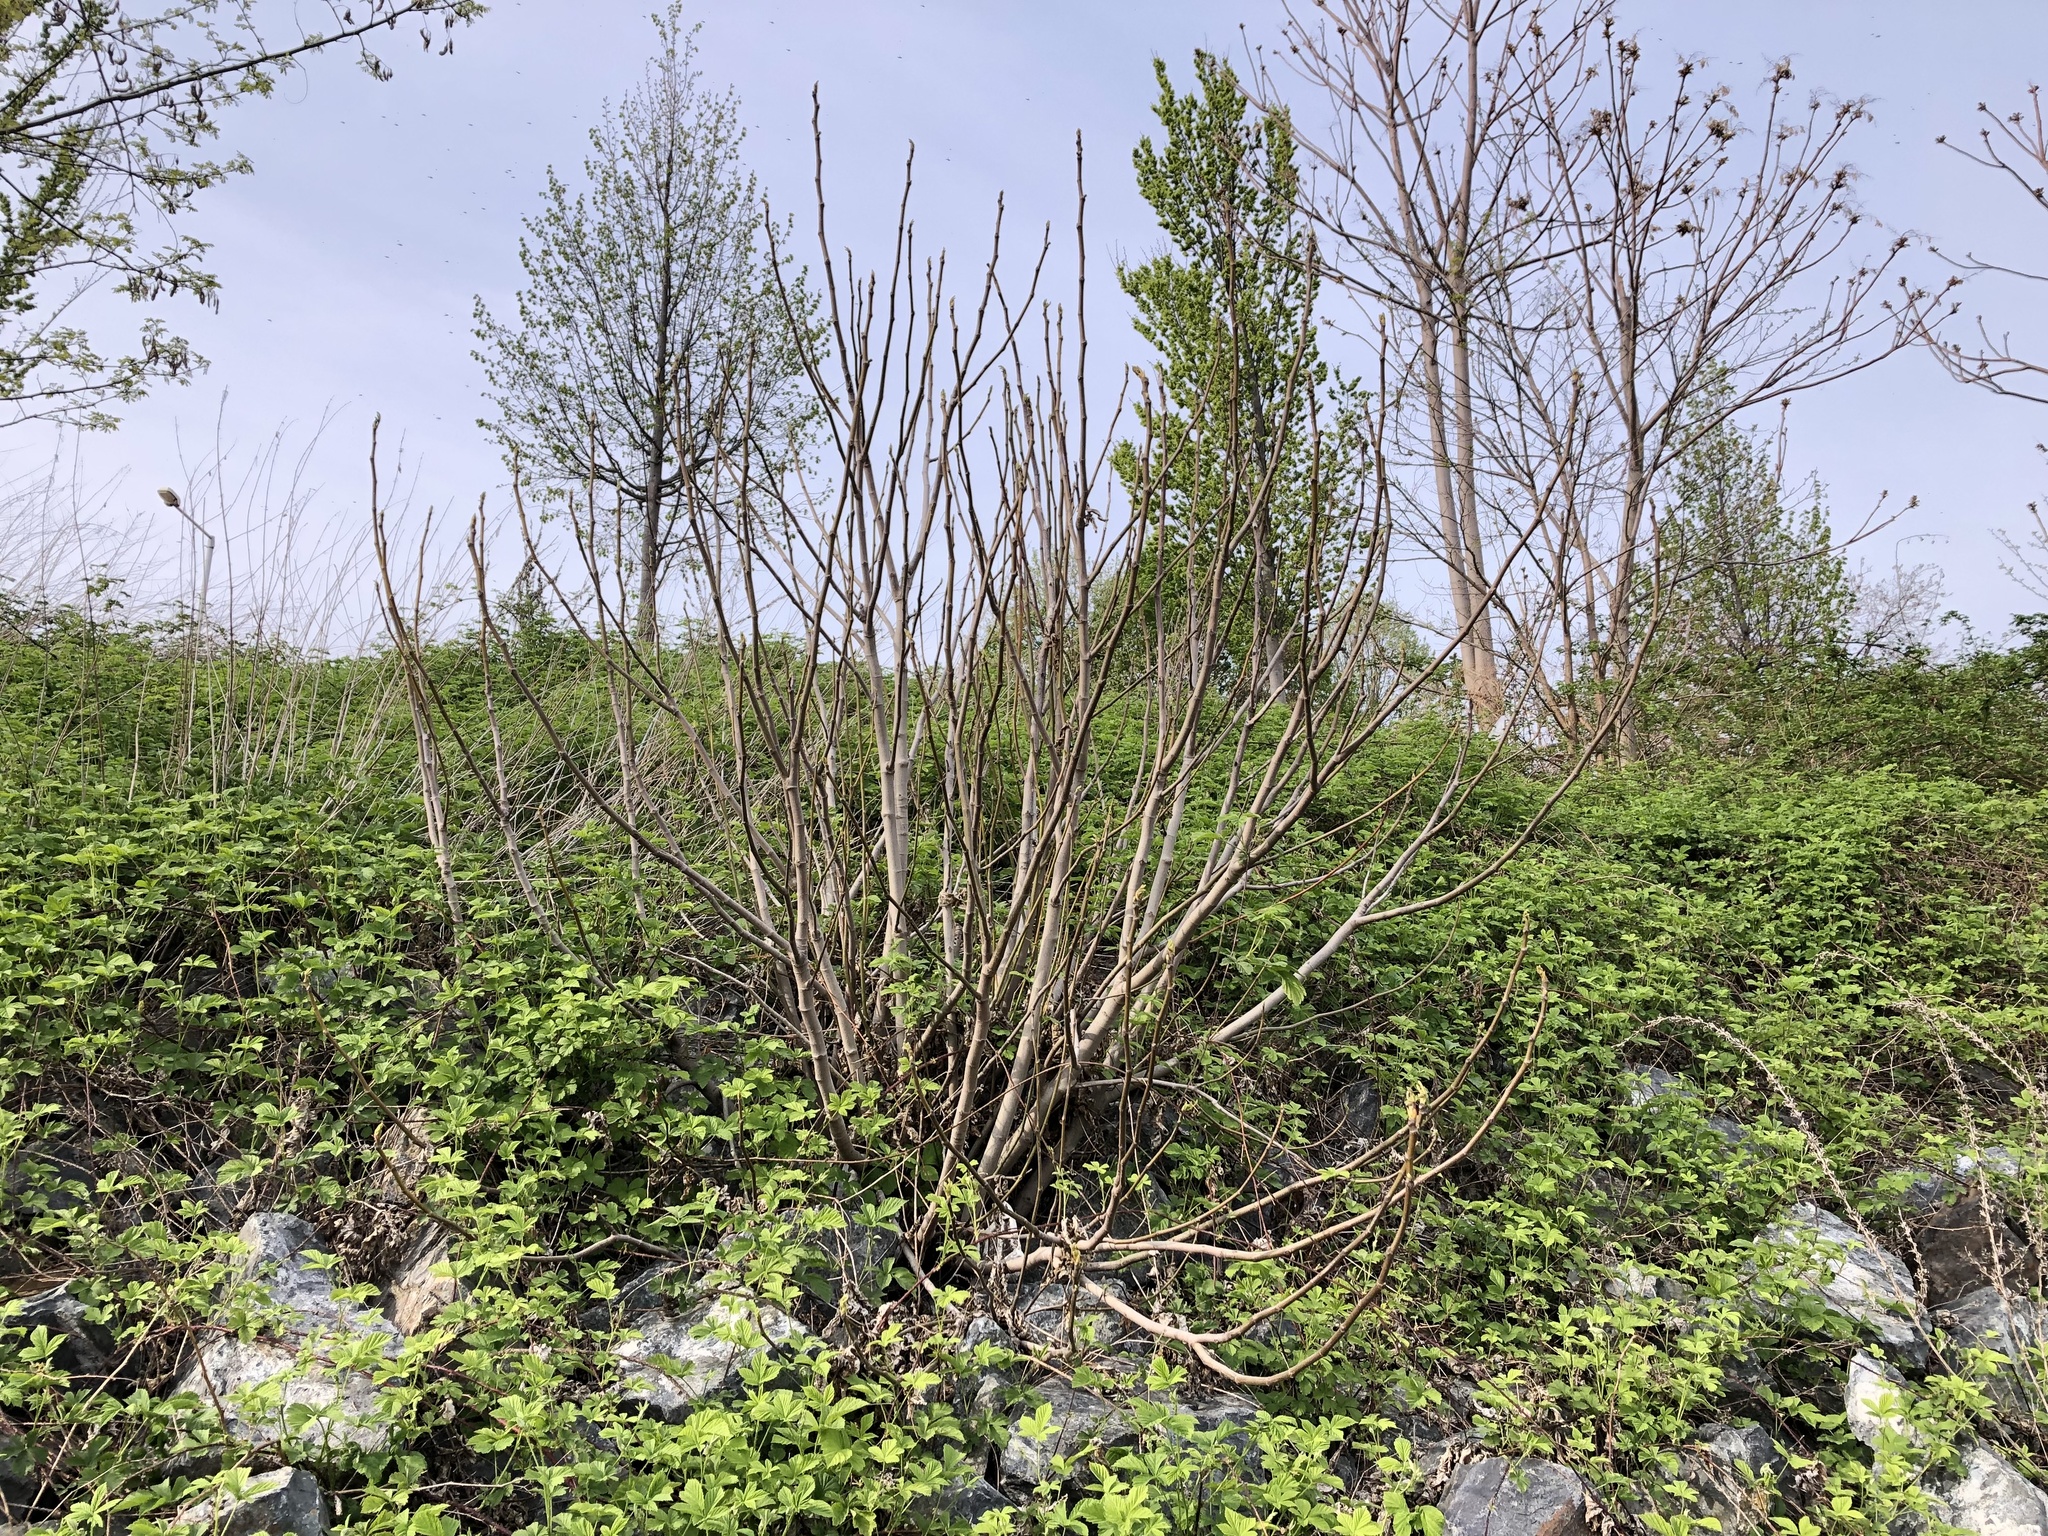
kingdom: Plantae
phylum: Tracheophyta
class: Magnoliopsida
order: Rosales
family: Moraceae
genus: Ficus
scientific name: Ficus carica
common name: Fig
